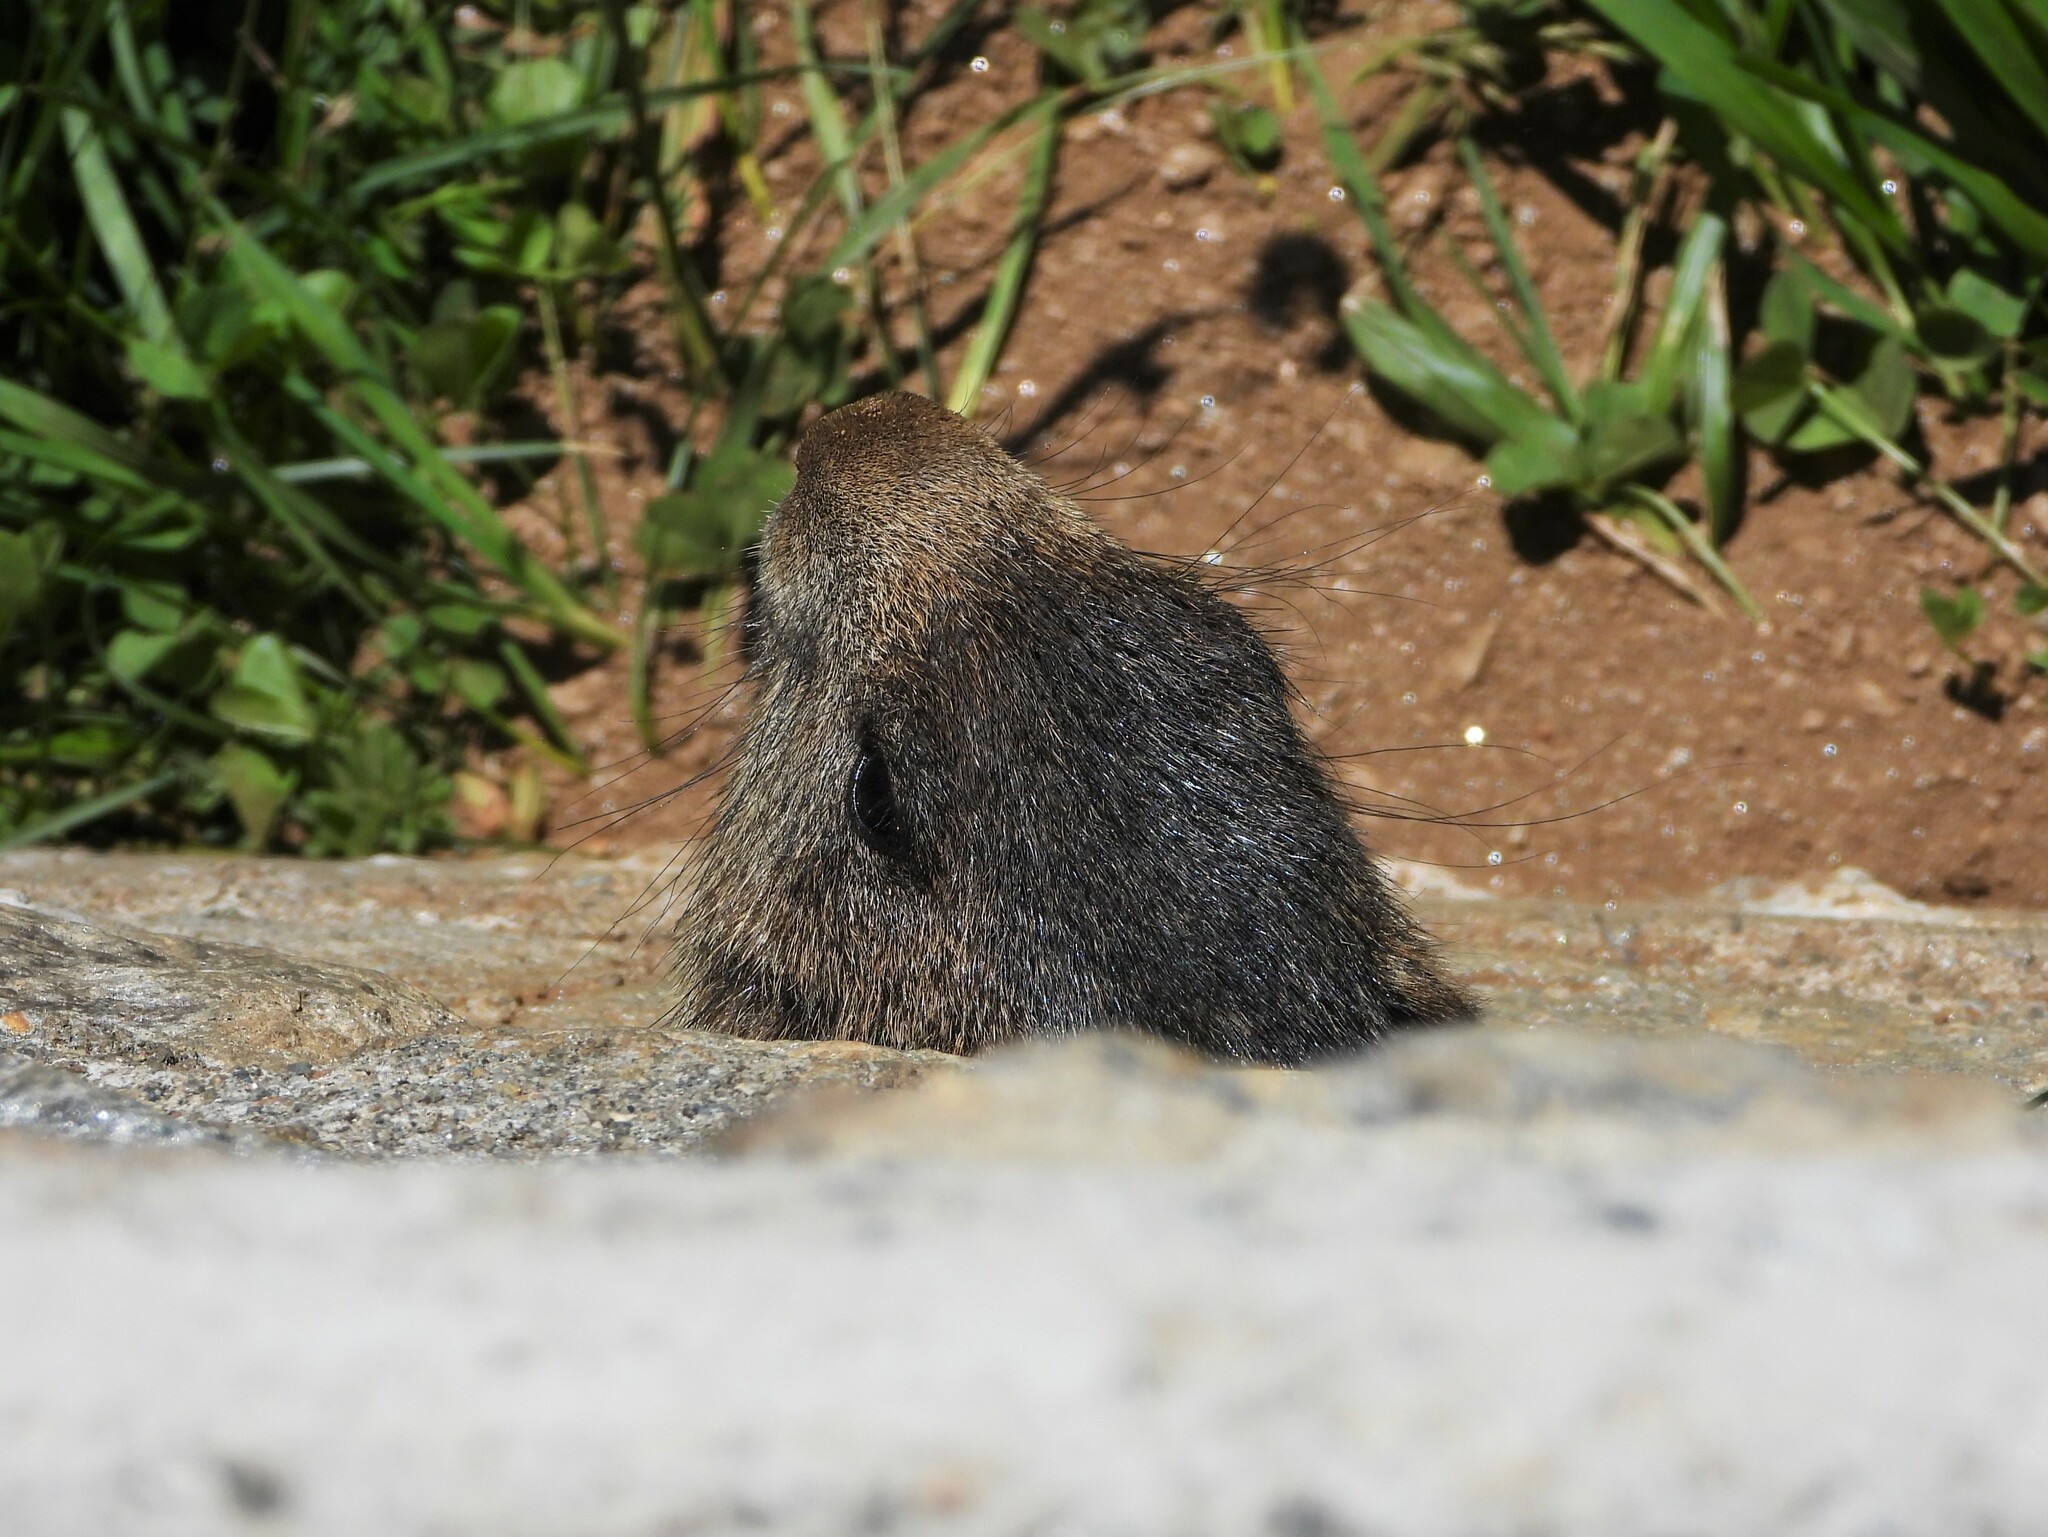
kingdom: Animalia
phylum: Chordata
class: Mammalia
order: Rodentia
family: Sciuridae
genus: Marmota
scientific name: Marmota marmota
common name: Alpine marmot
